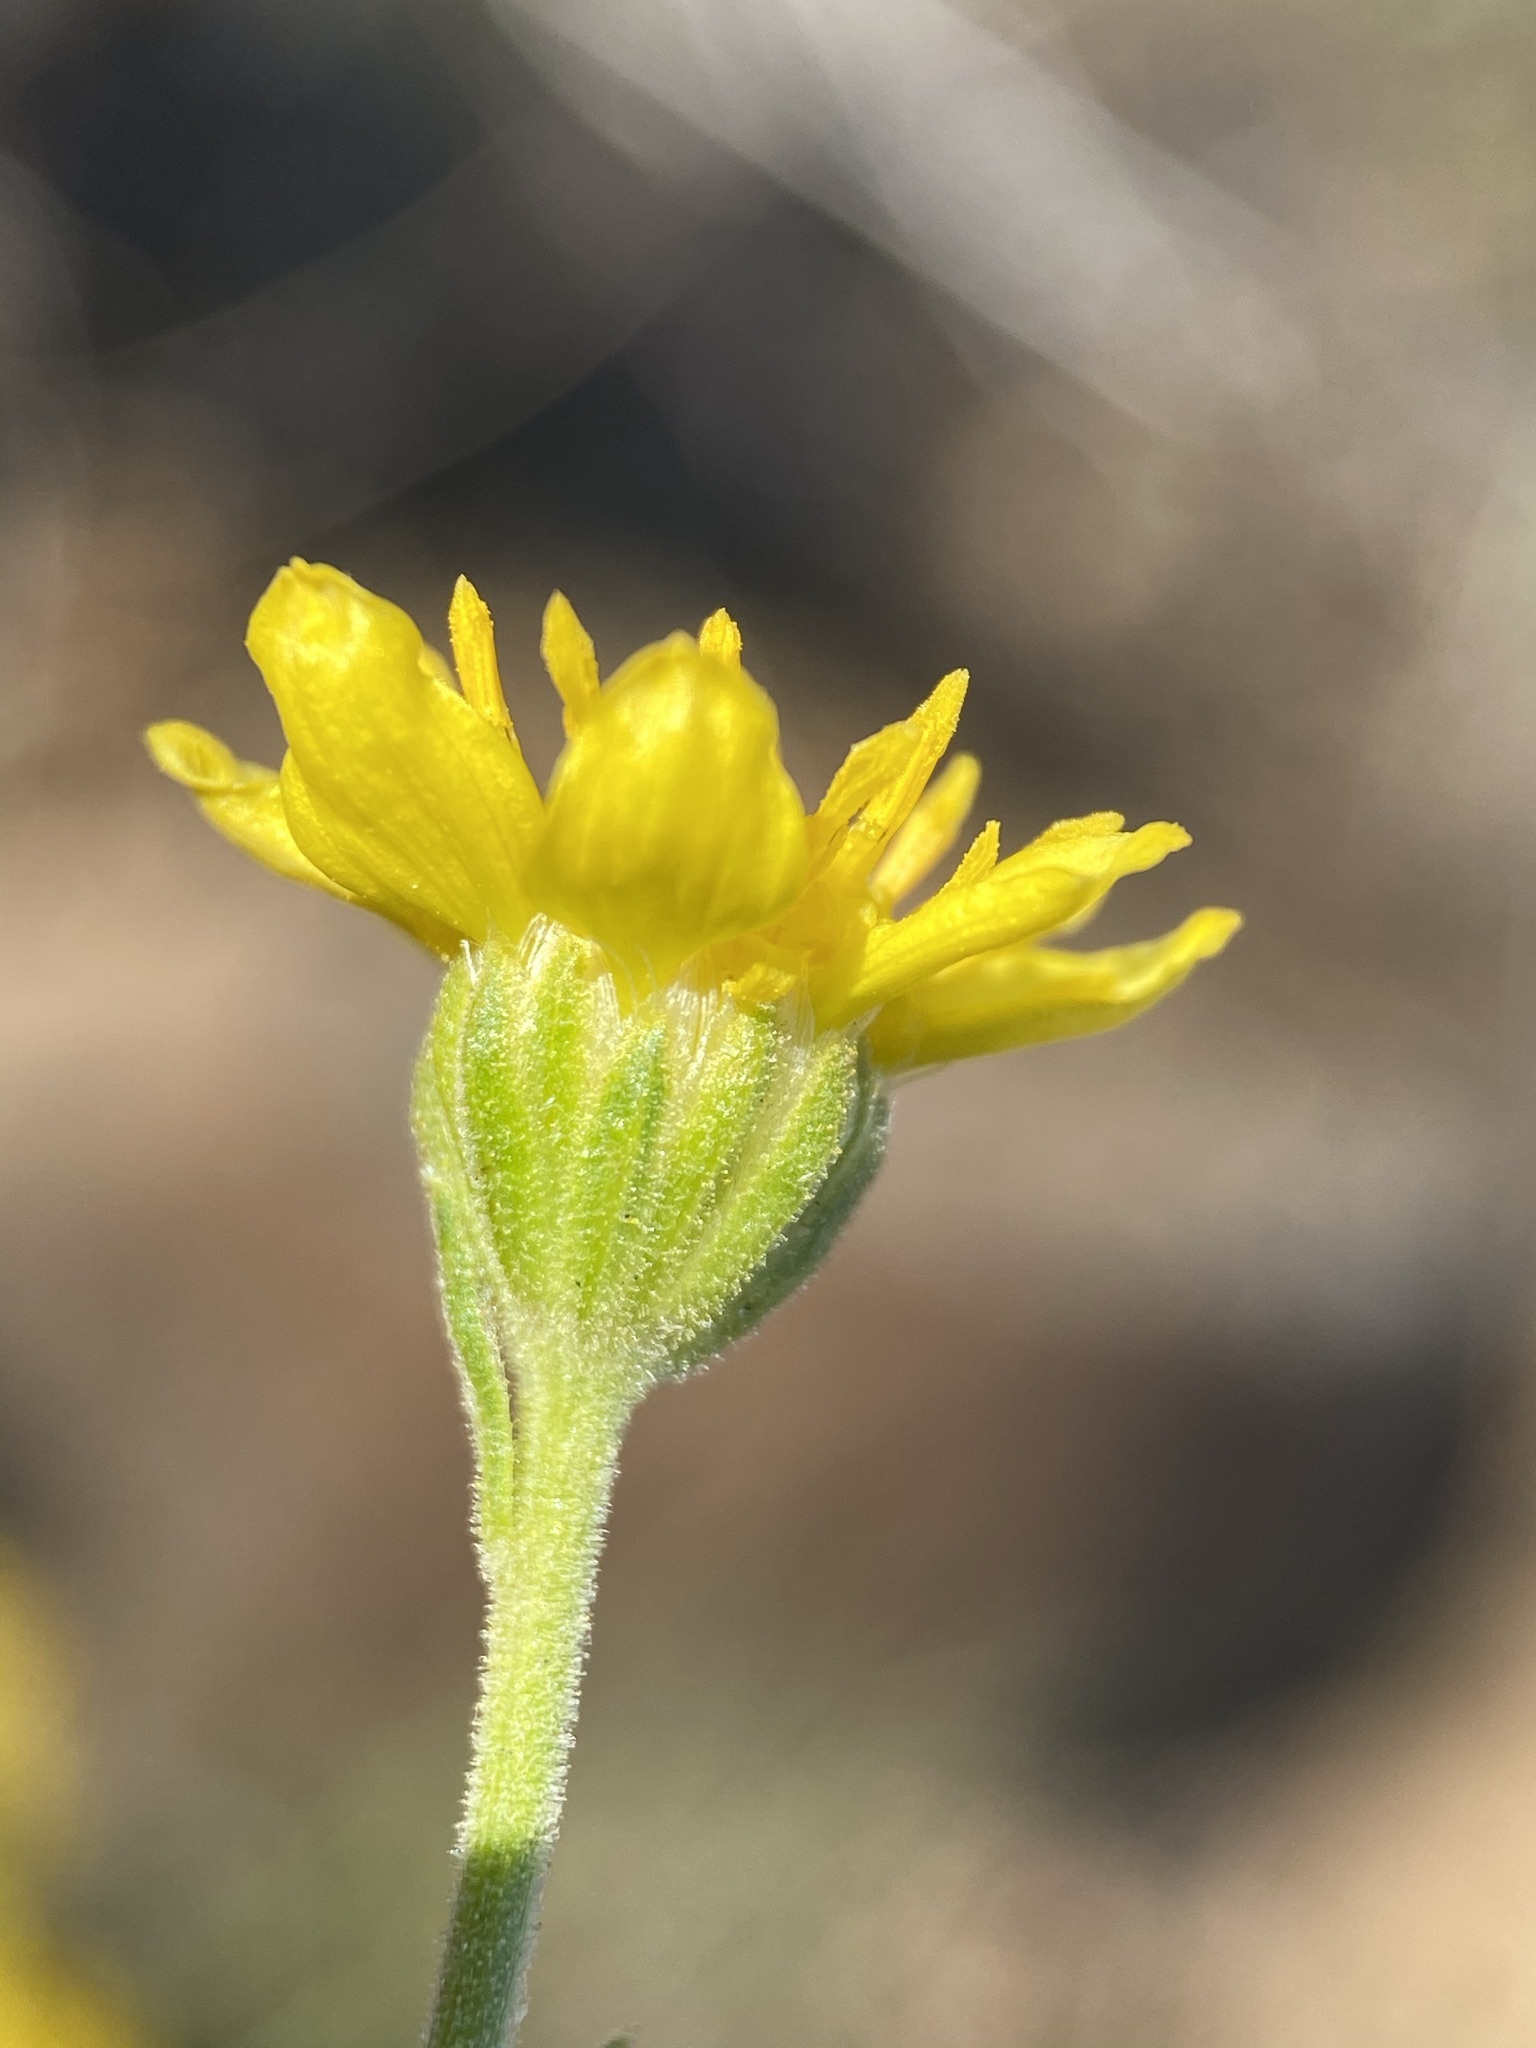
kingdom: Plantae
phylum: Tracheophyta
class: Magnoliopsida
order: Asterales
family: Asteraceae
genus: Nestotus
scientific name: Nestotus stenophyllus
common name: Narrow-leaf mock goldenweed
